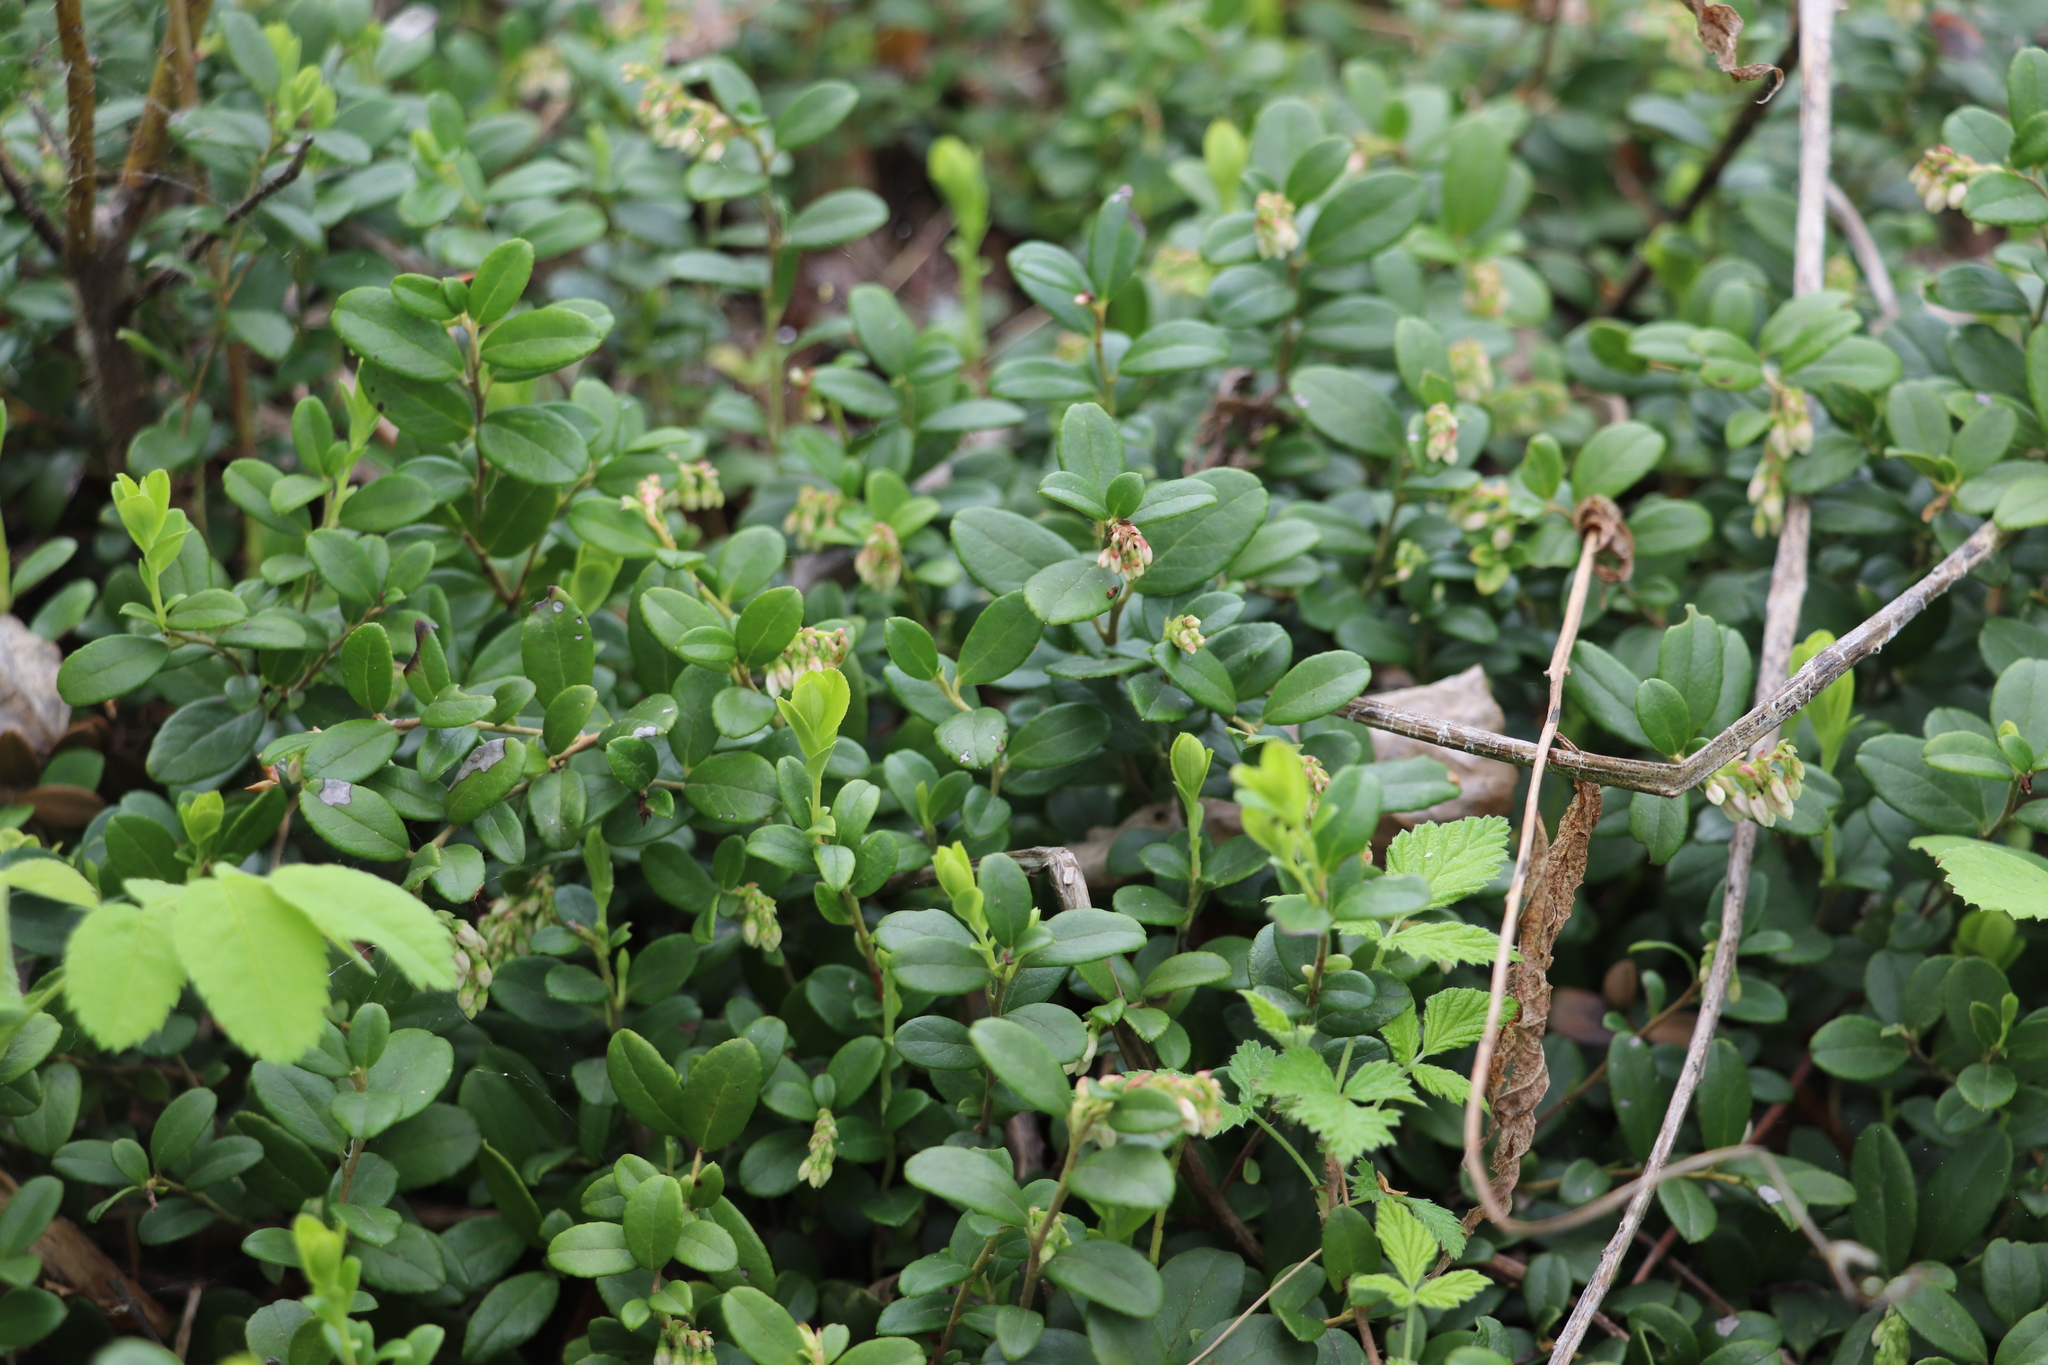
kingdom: Plantae
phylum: Tracheophyta
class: Magnoliopsida
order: Ericales
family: Ericaceae
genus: Vaccinium
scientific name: Vaccinium vitis-idaea
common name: Cowberry
